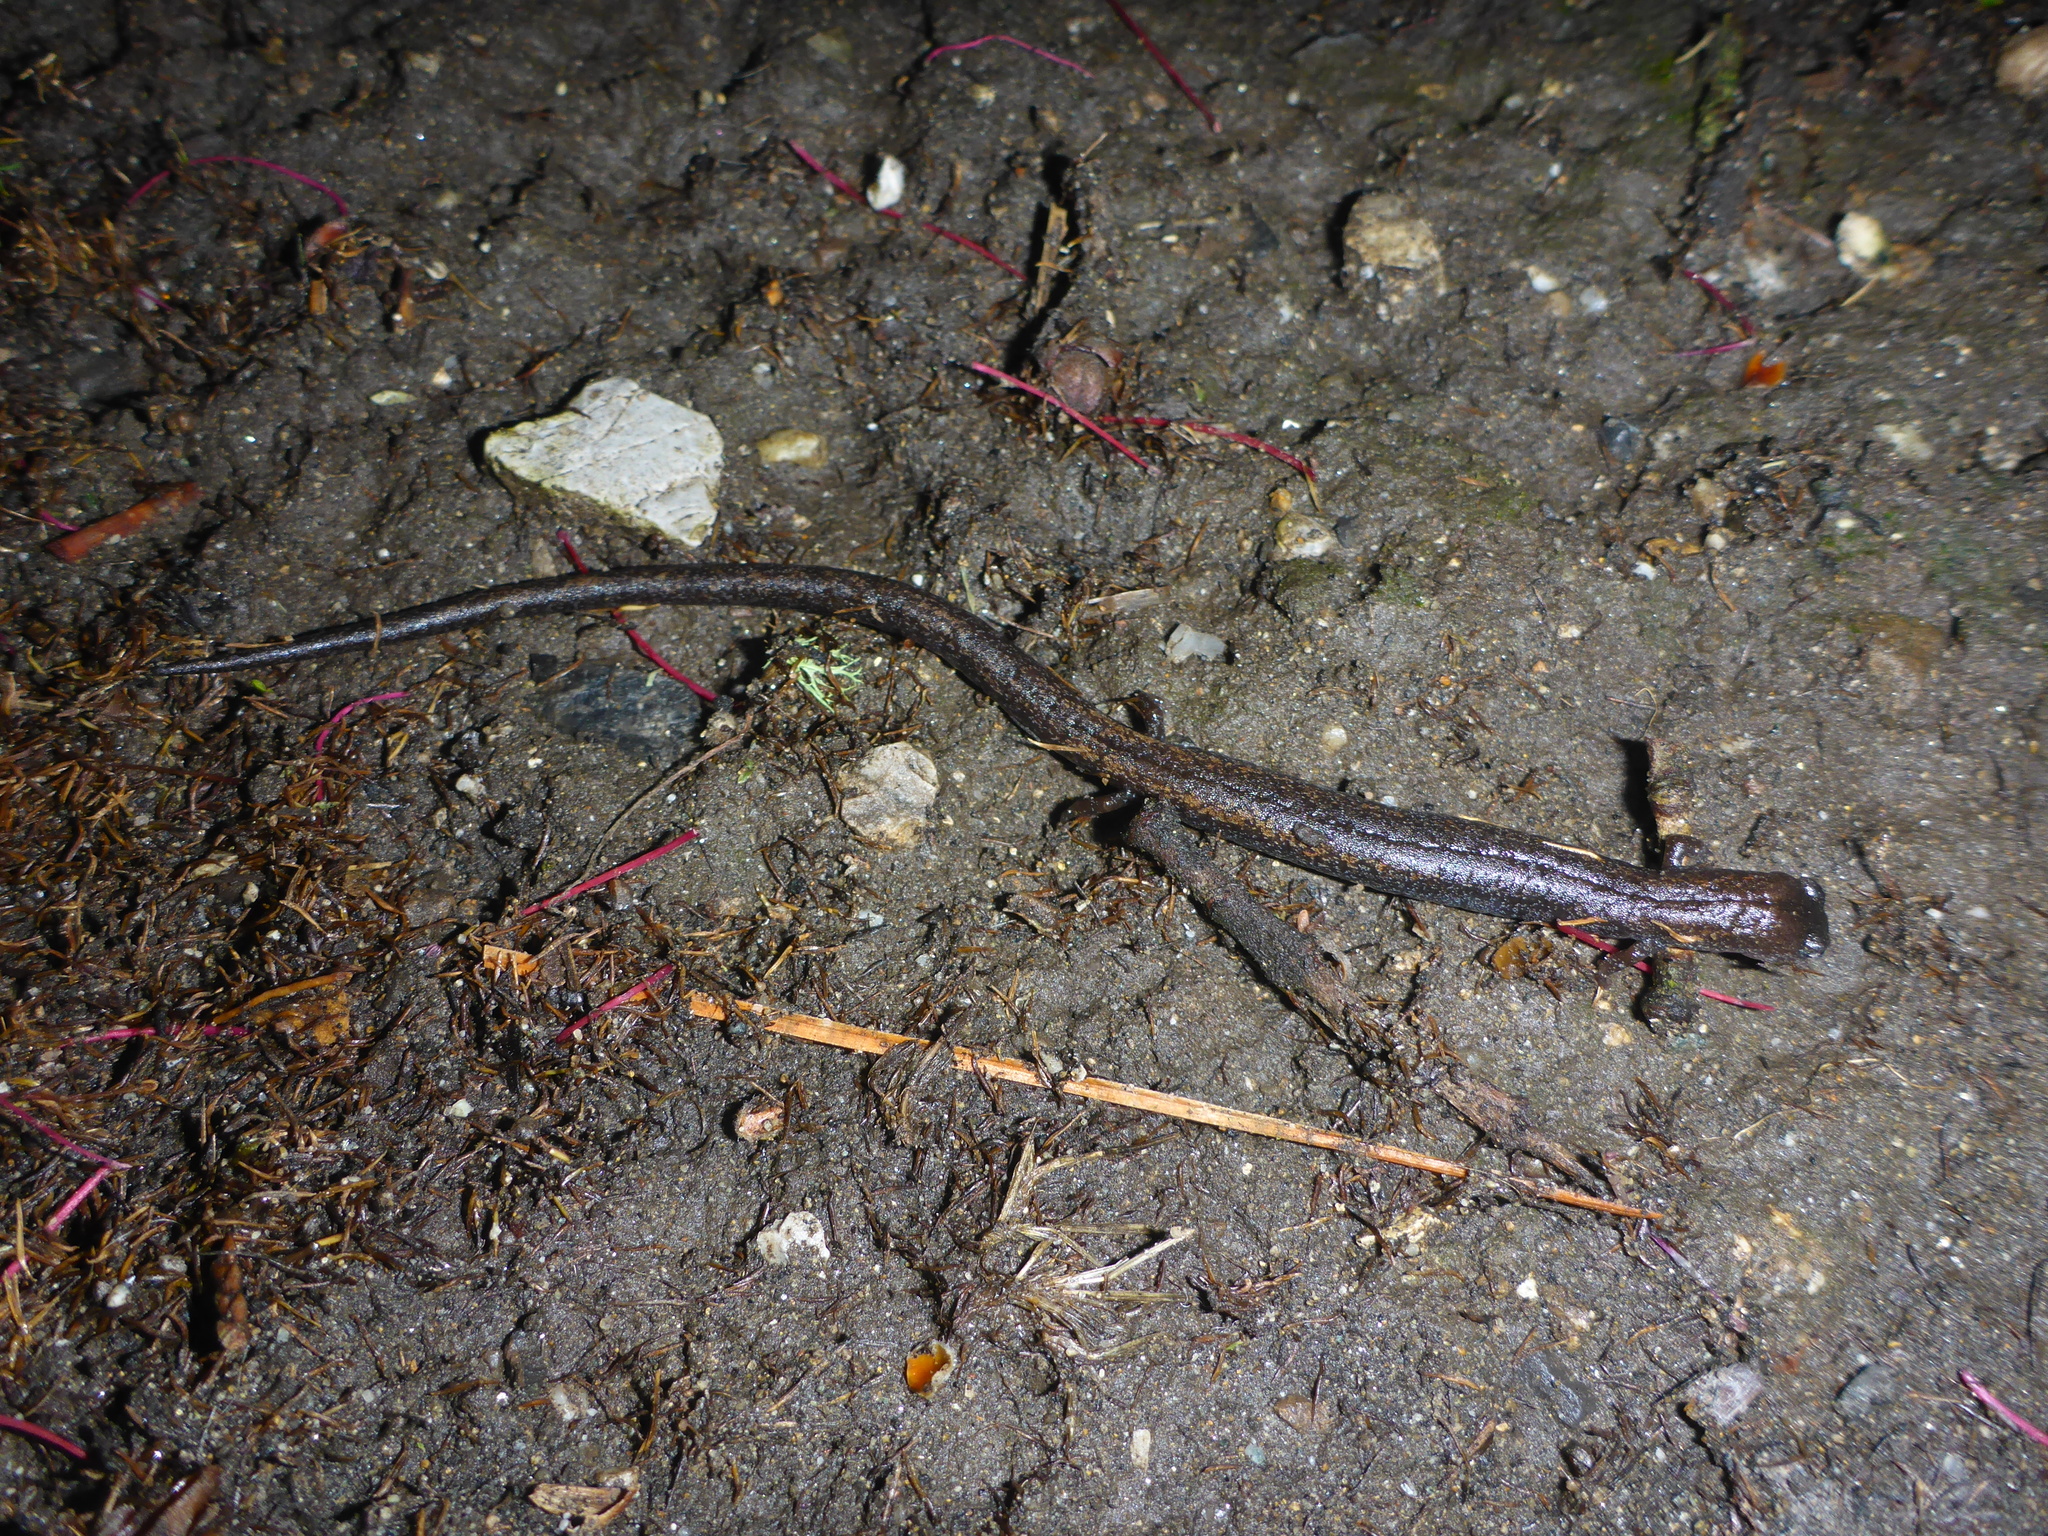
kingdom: Animalia
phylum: Chordata
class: Amphibia
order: Caudata
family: Plethodontidae
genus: Batrachoseps
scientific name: Batrachoseps attenuatus
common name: California slender salamander
